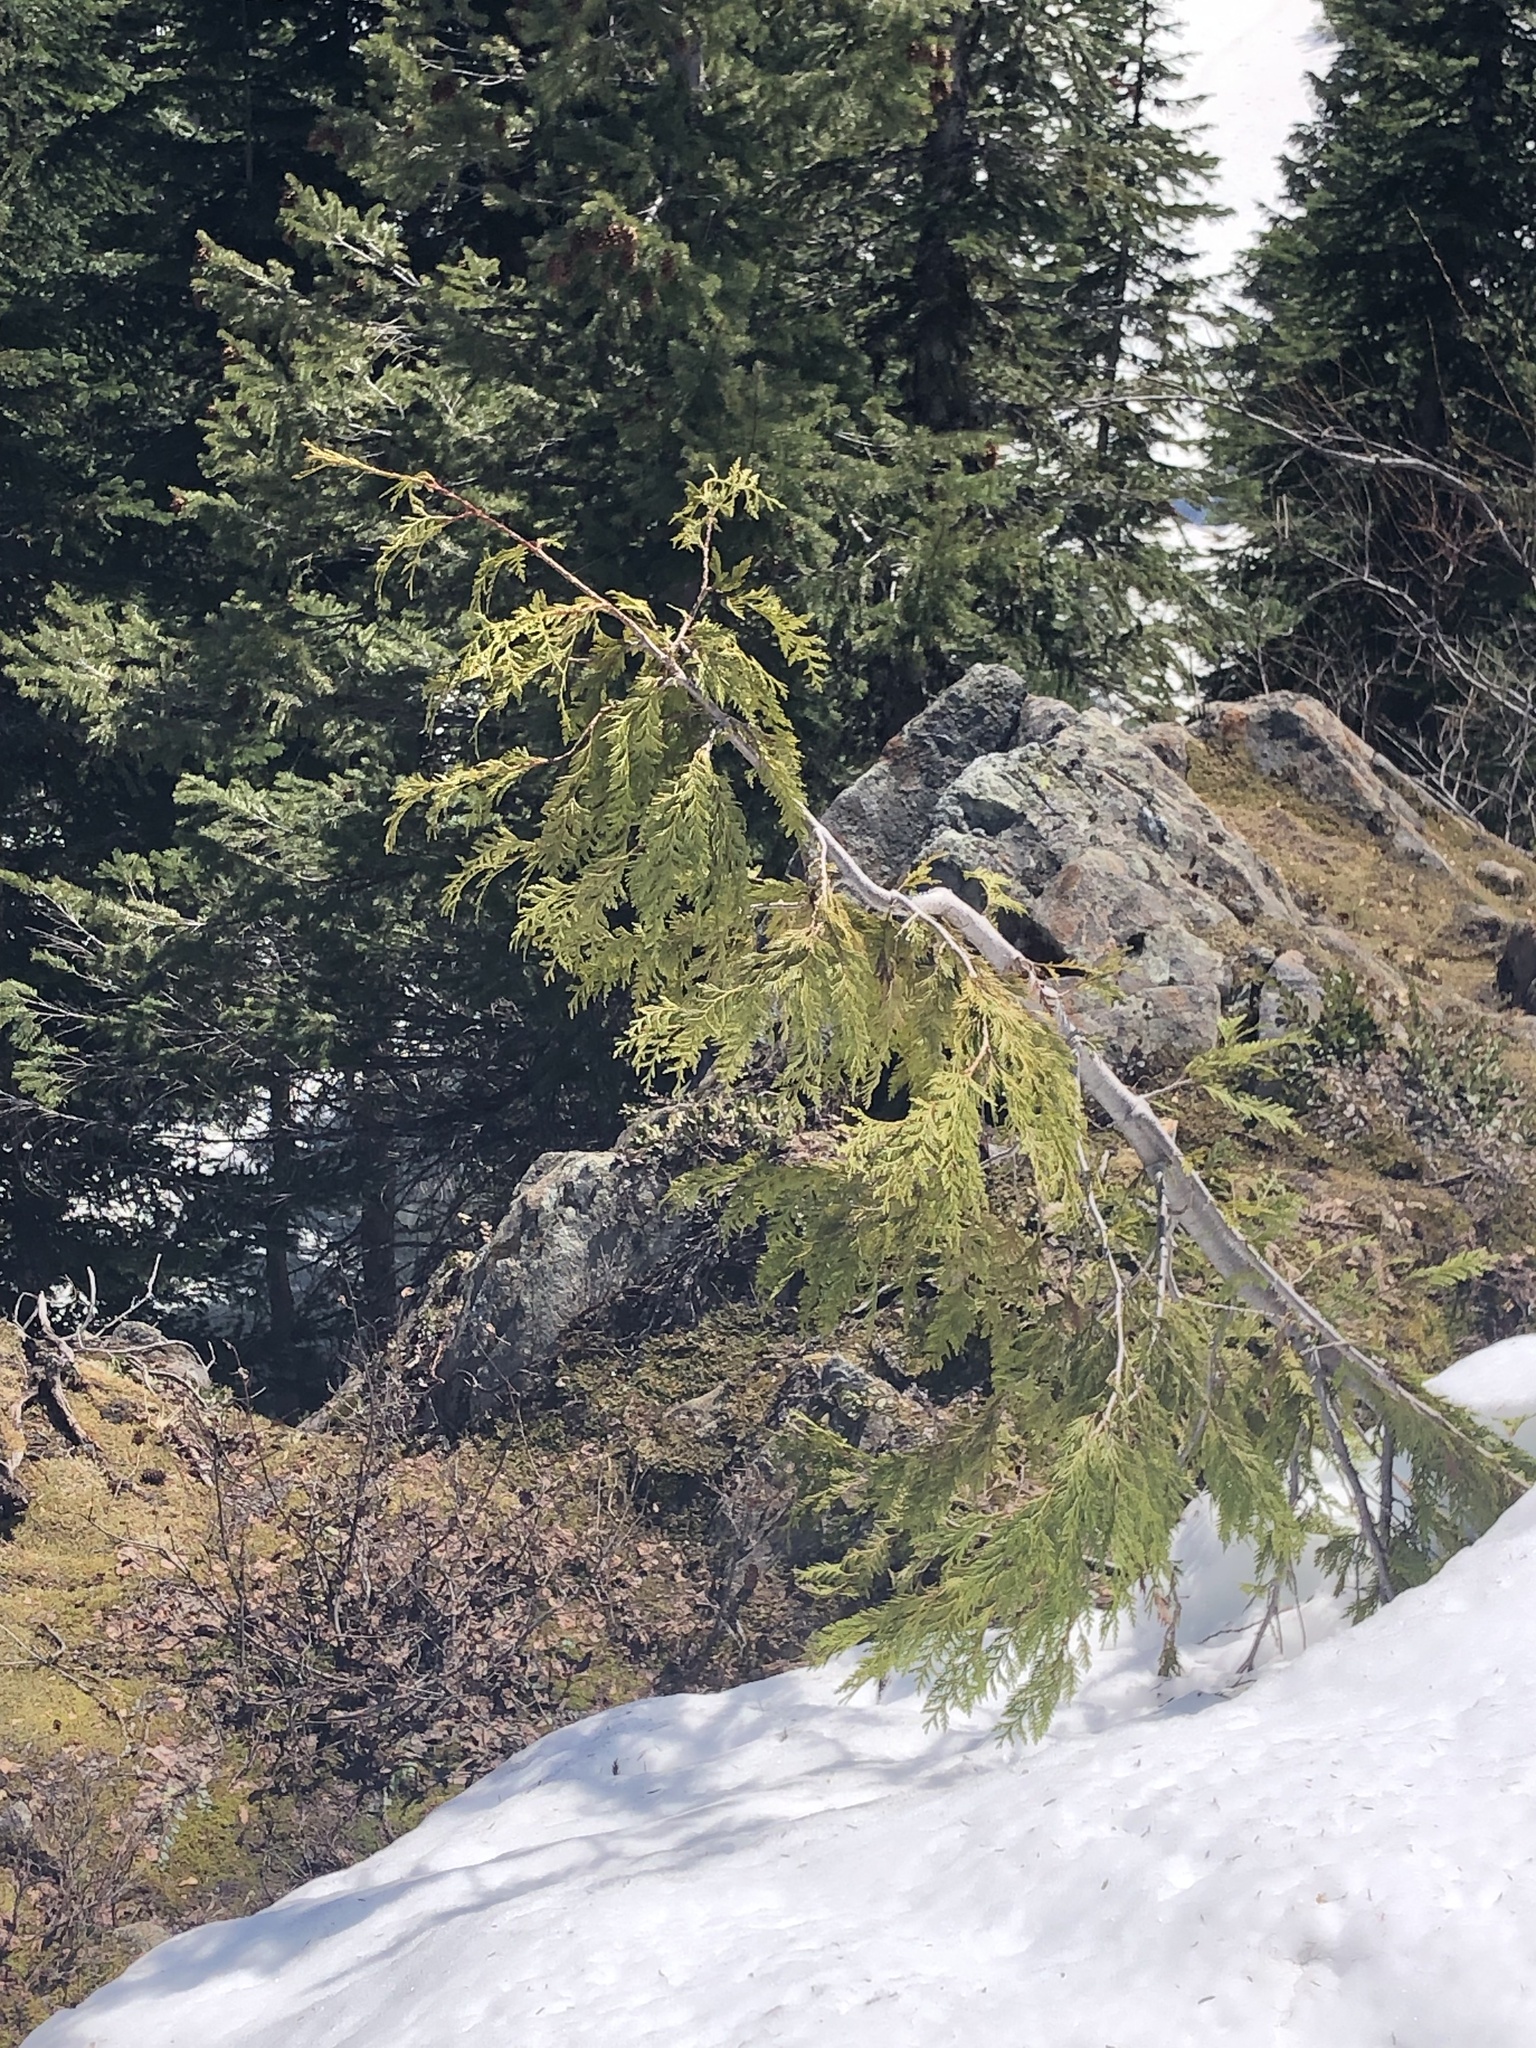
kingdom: Plantae
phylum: Tracheophyta
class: Pinopsida
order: Pinales
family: Cupressaceae
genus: Thuja
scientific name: Thuja plicata
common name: Western red-cedar
